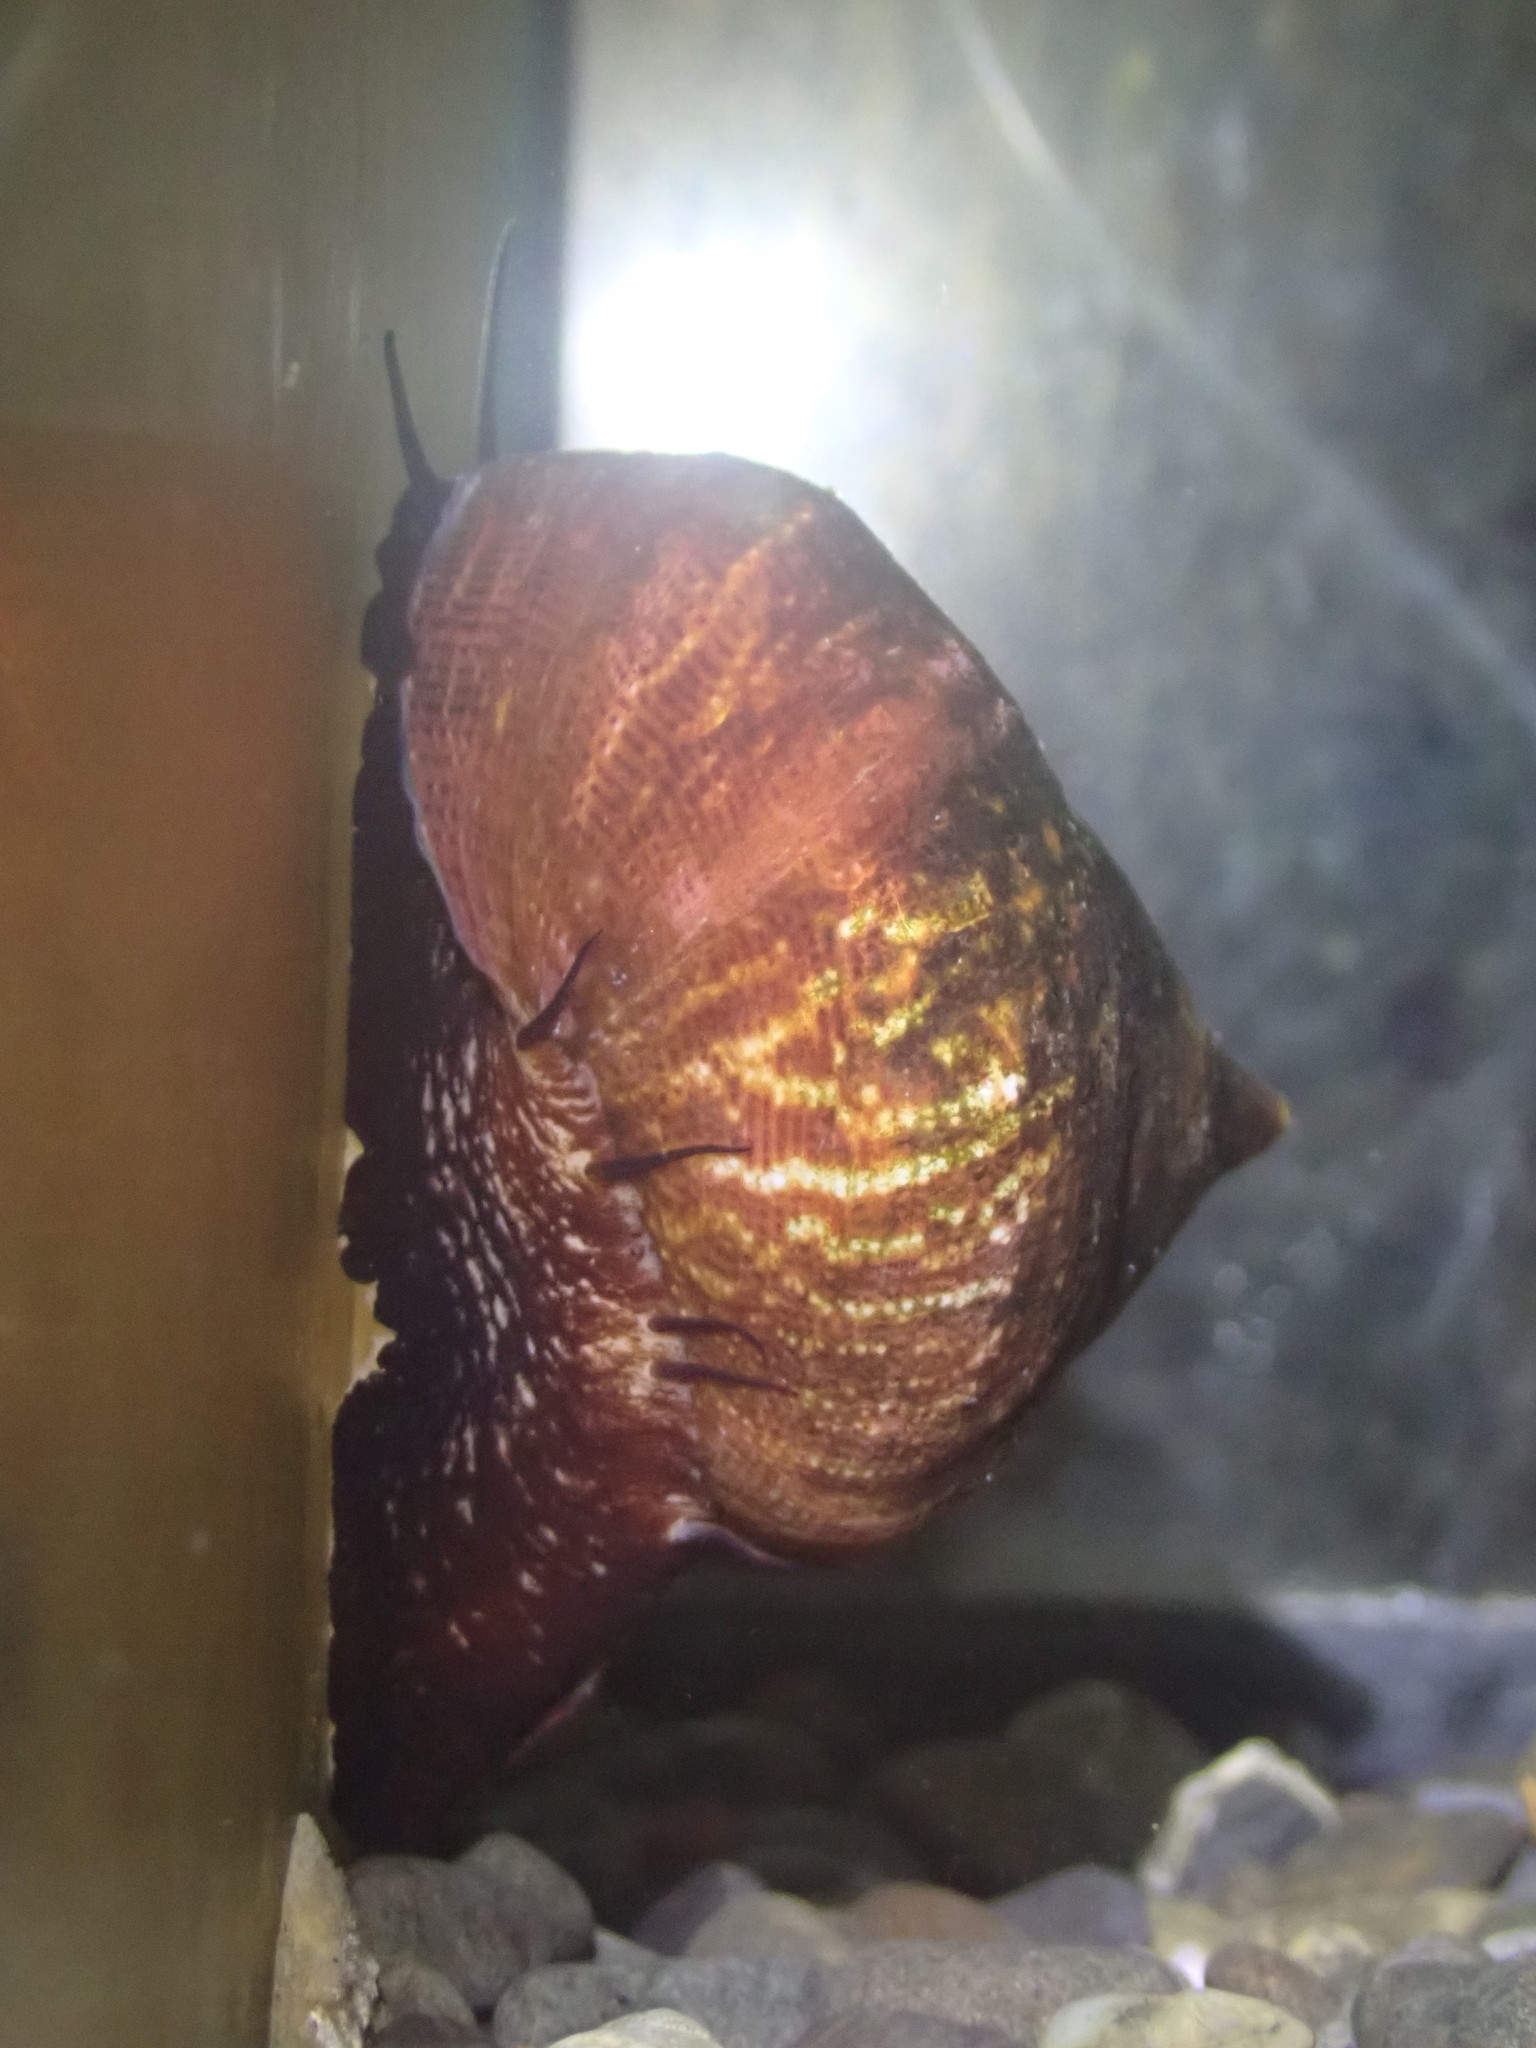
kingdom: Animalia
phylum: Mollusca
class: Gastropoda
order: Trochida
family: Calliostomatidae
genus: Maurea
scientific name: Maurea tigris
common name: Tiger maurea
